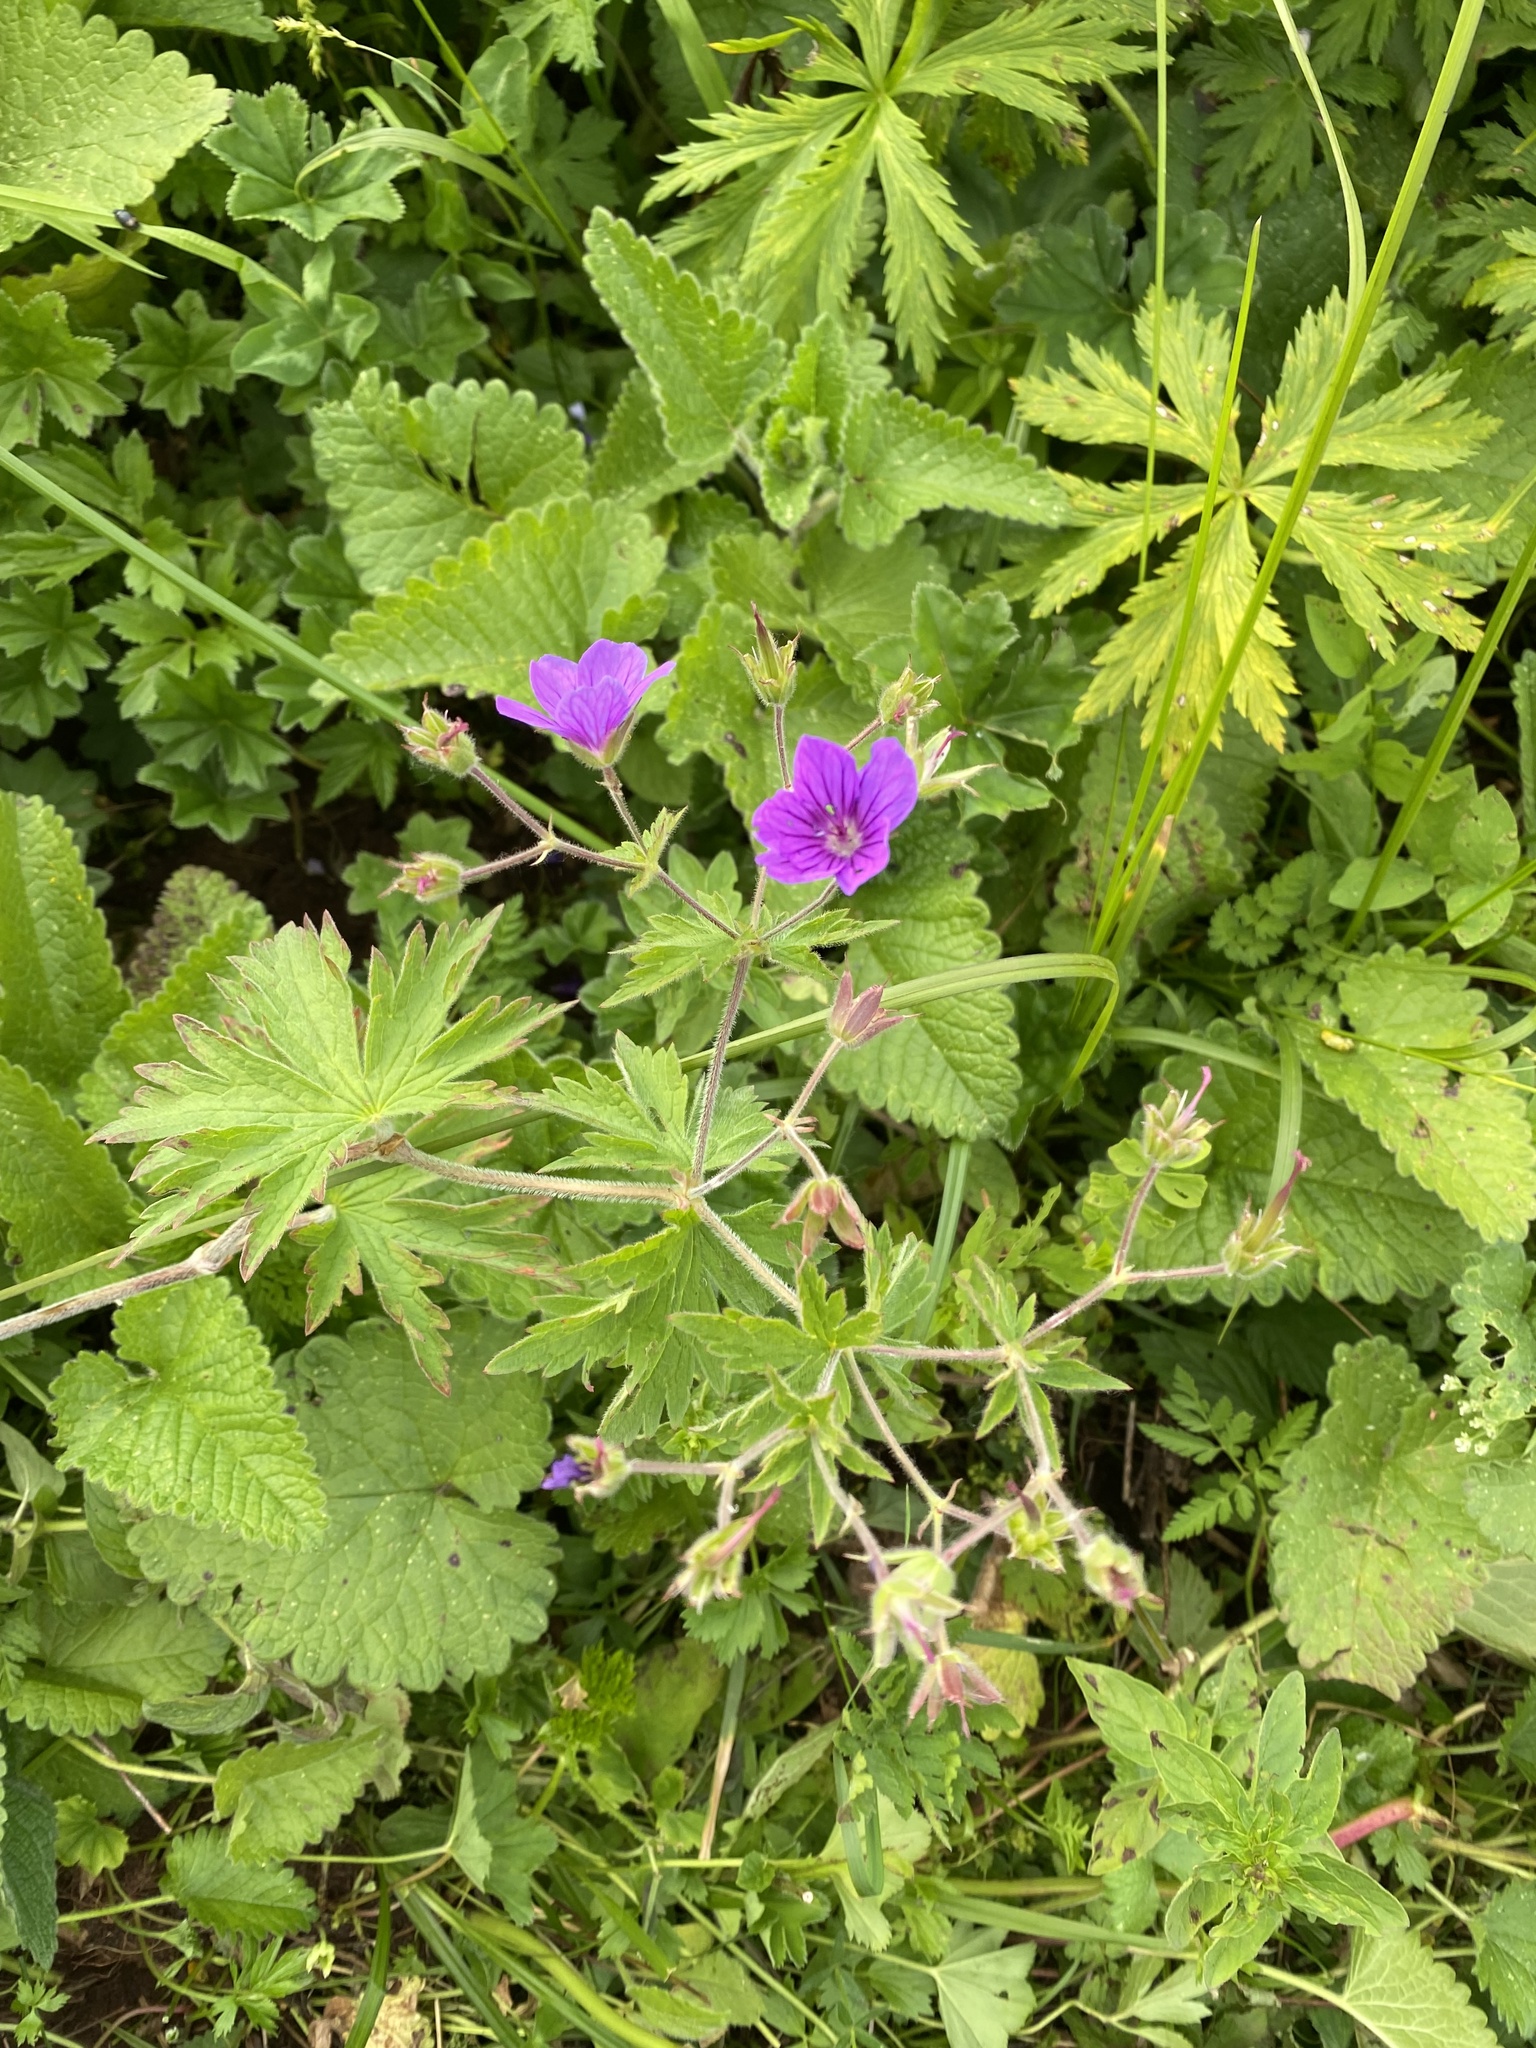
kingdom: Plantae
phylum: Tracheophyta
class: Magnoliopsida
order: Geraniales
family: Geraniaceae
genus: Geranium
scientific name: Geranium sylvaticum
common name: Wood crane's-bill
